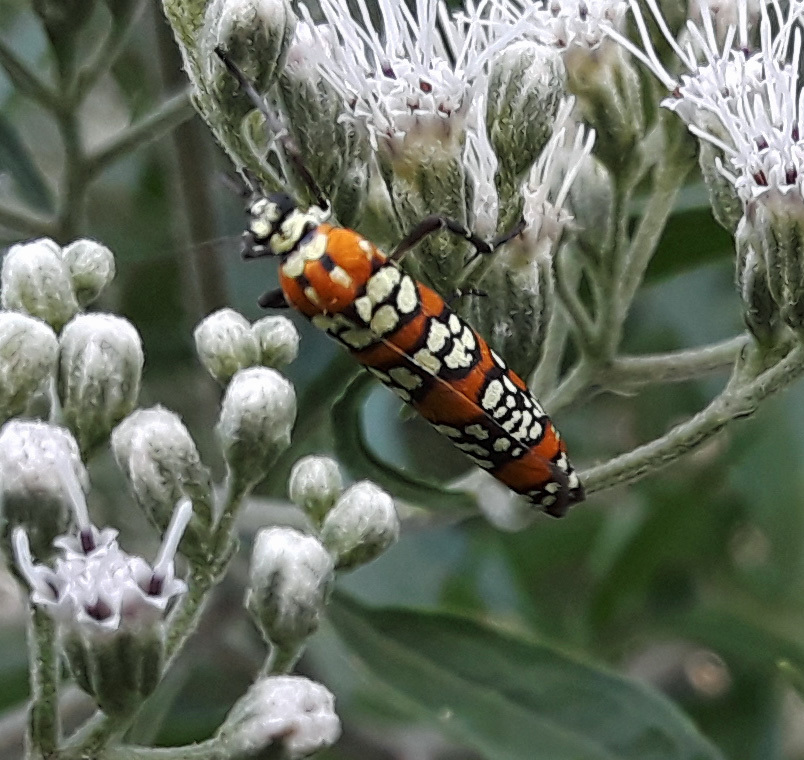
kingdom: Animalia
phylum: Arthropoda
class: Insecta
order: Lepidoptera
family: Attevidae
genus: Atteva
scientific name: Atteva punctella
